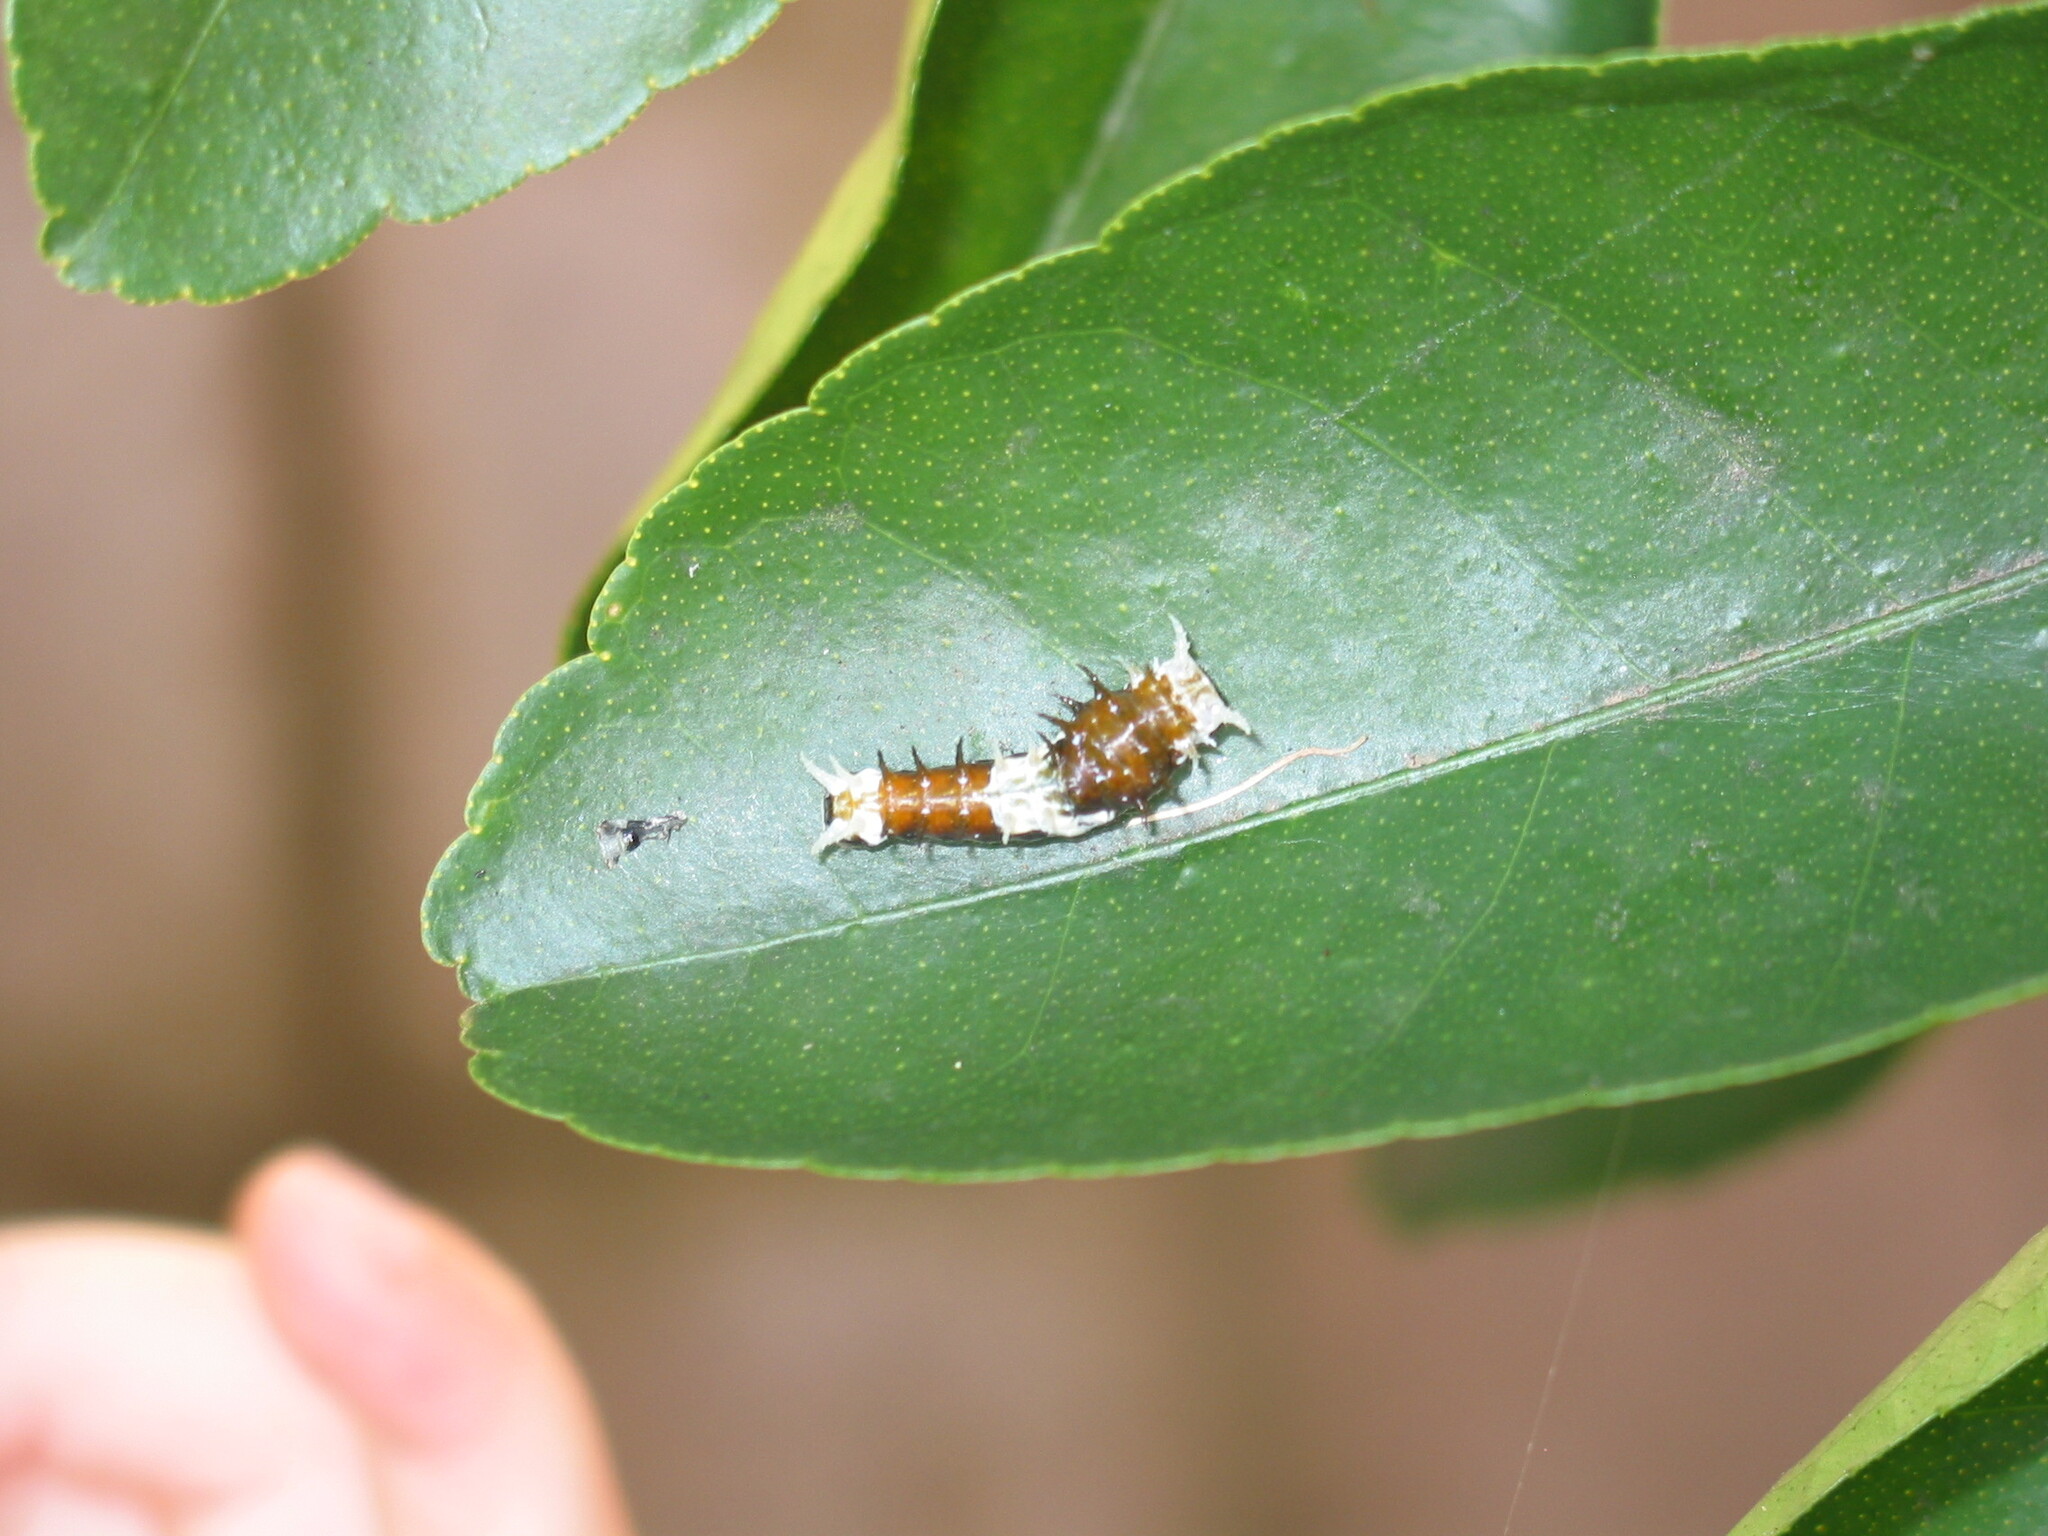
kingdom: Animalia
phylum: Arthropoda
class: Insecta
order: Lepidoptera
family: Papilionidae
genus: Papilio
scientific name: Papilio aegeus
